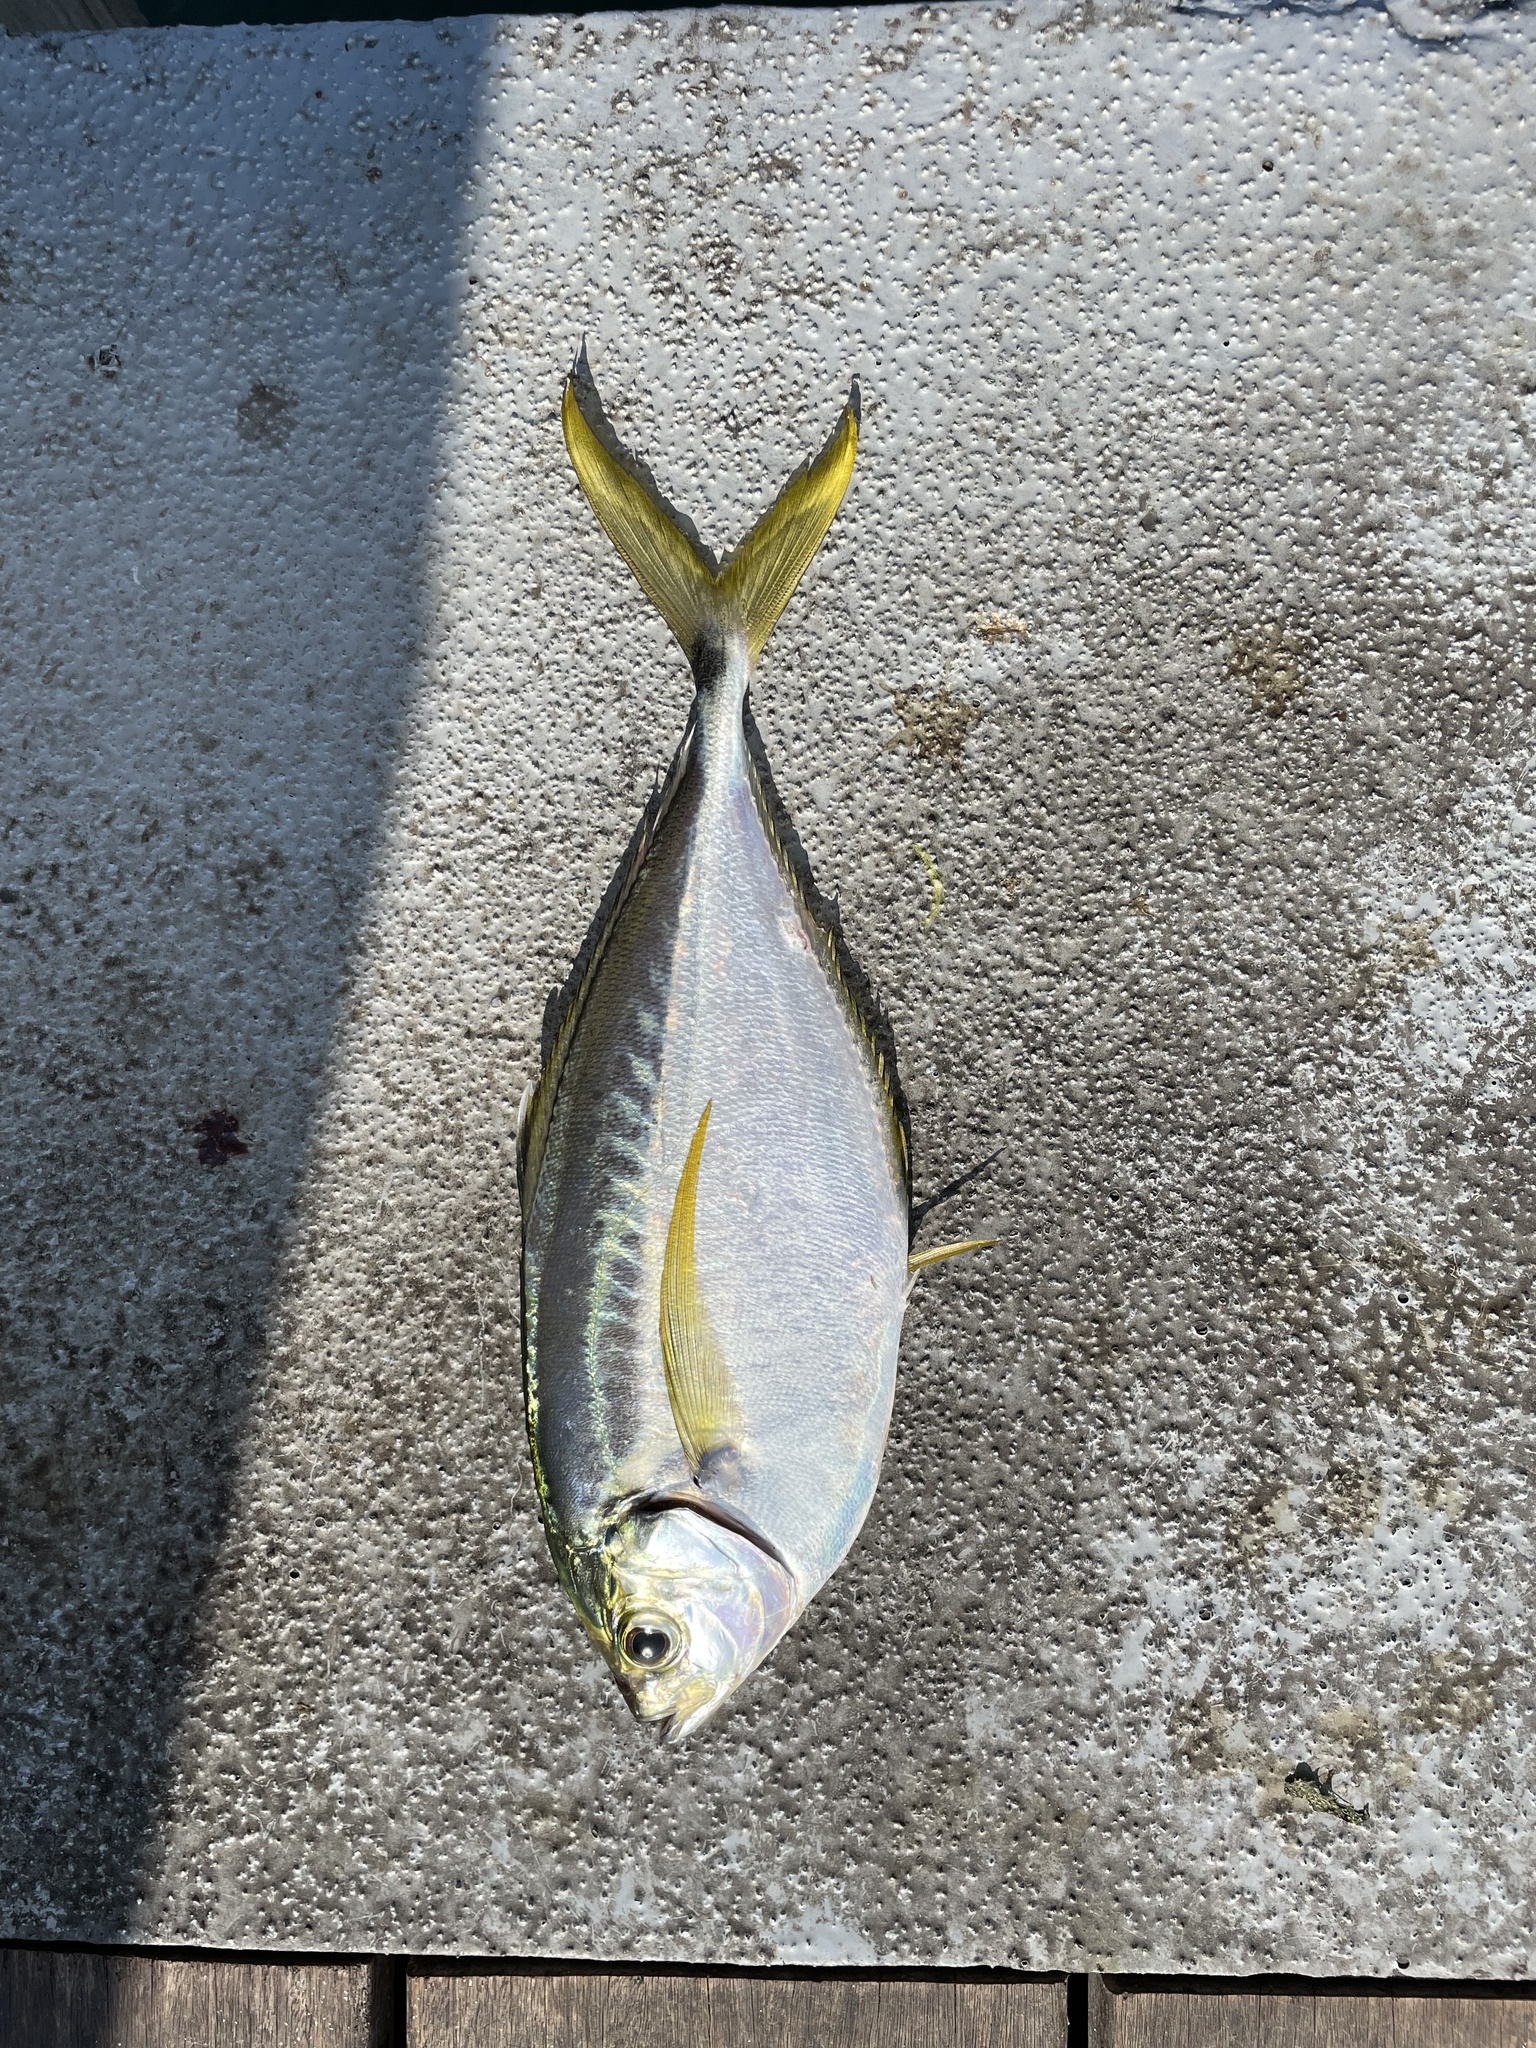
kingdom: Animalia
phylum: Chordata
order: Perciformes
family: Carangidae
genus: Chloroscombrus
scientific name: Chloroscombrus chrysurus
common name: Bumper
